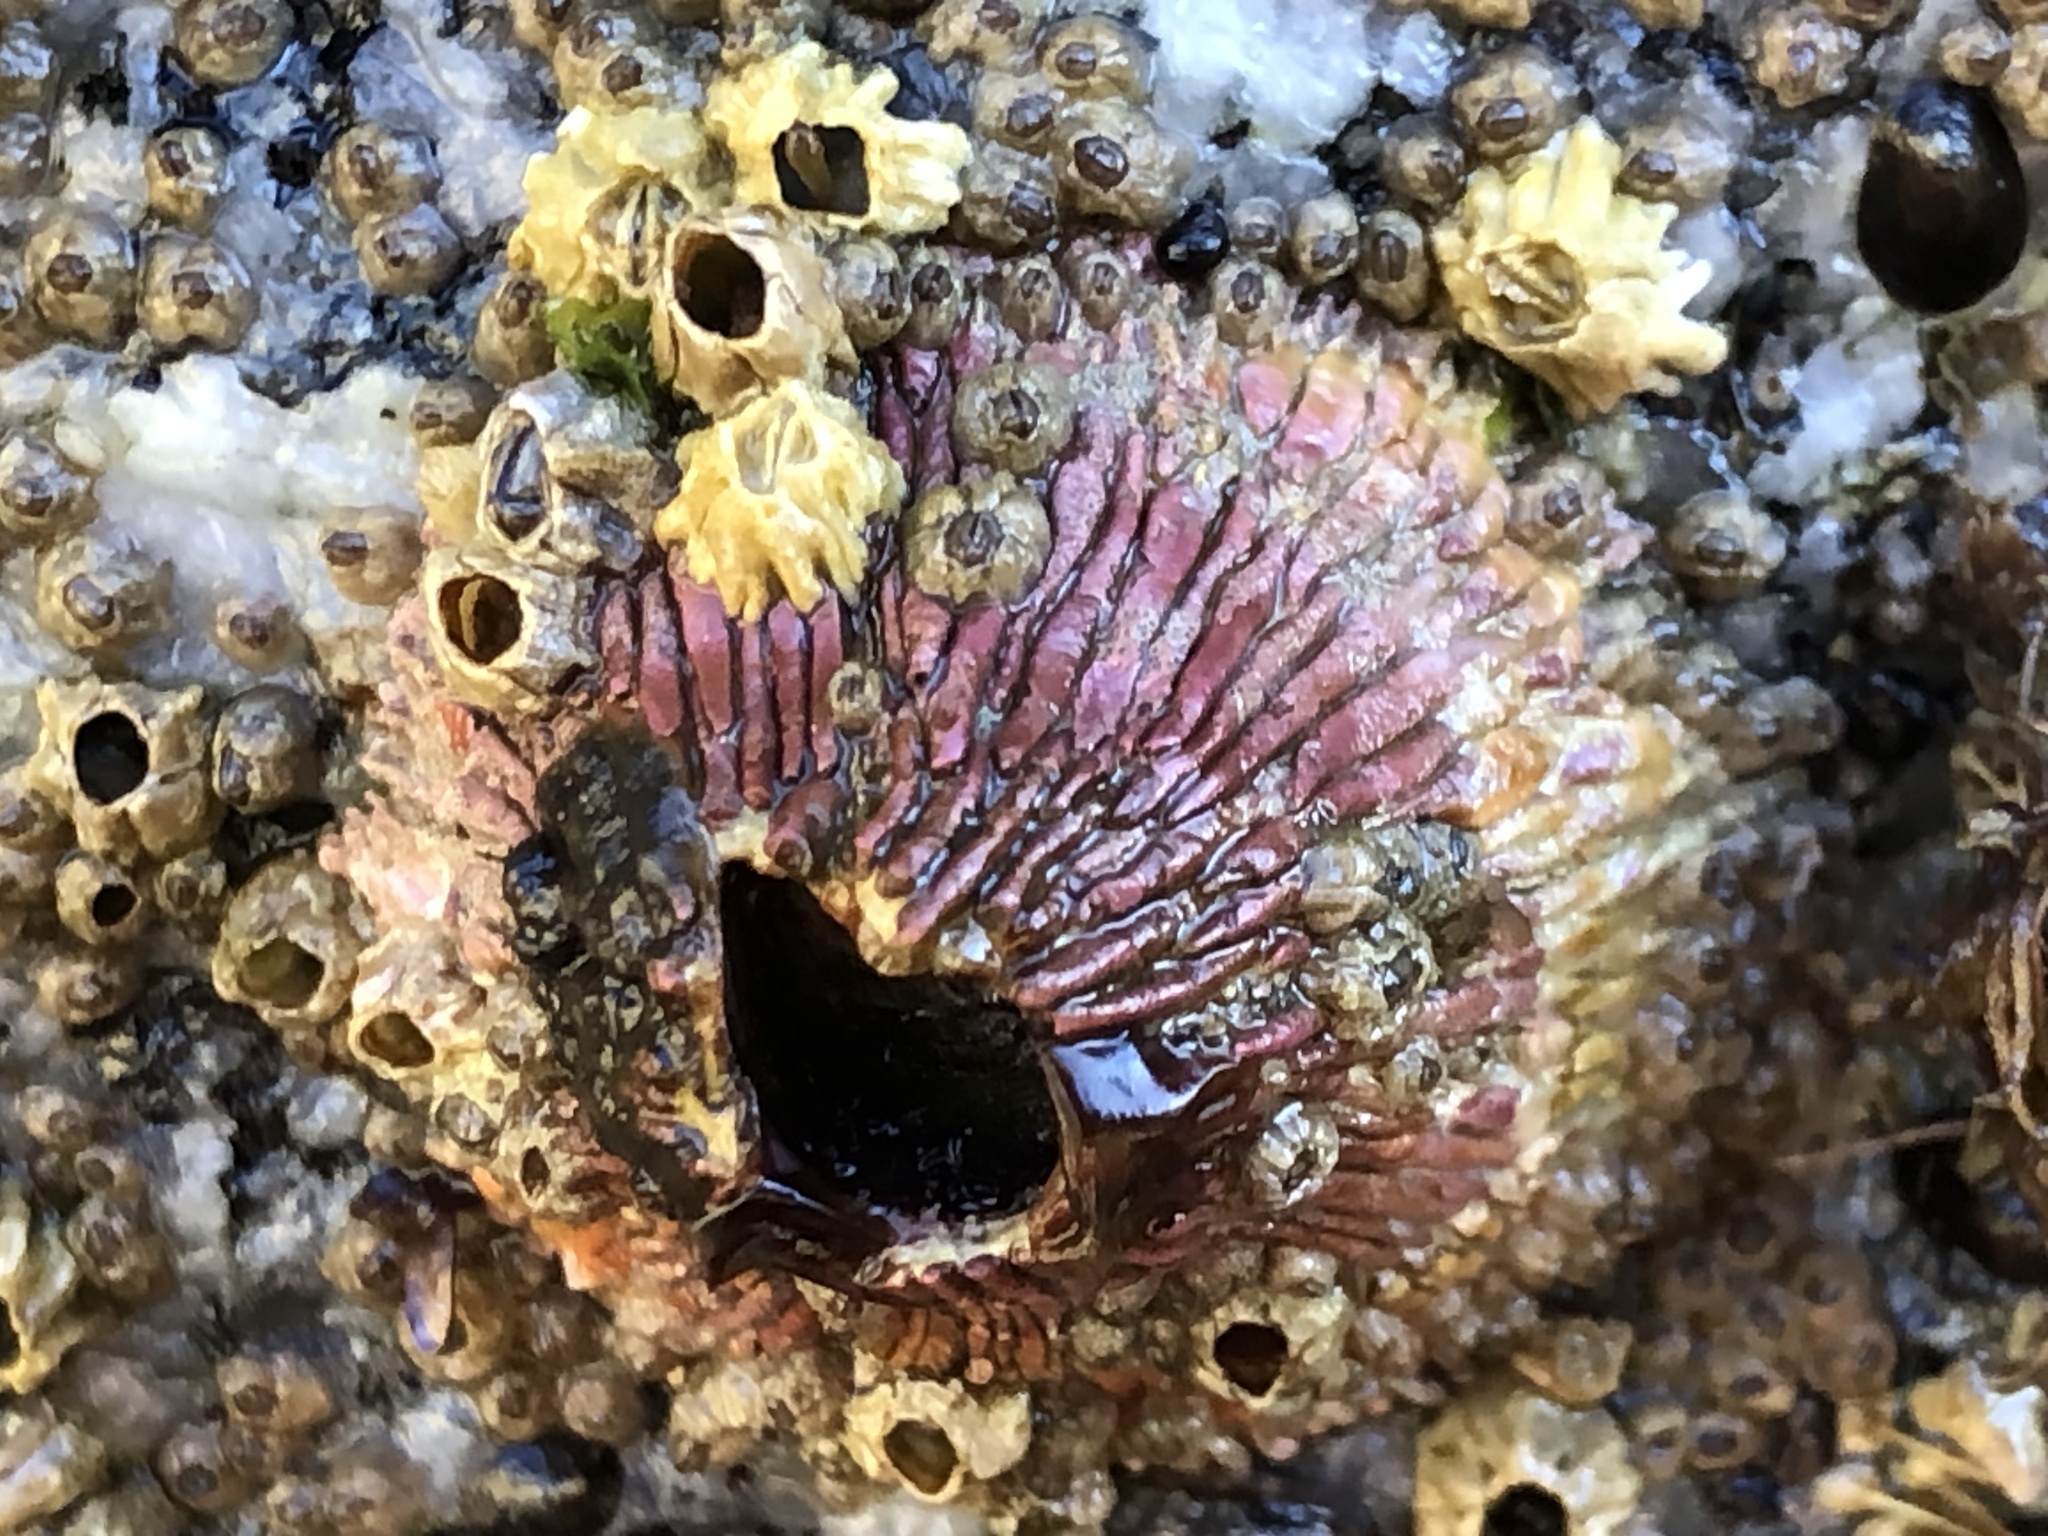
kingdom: Animalia
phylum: Arthropoda
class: Maxillopoda
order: Sessilia
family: Tetraclitidae
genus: Tetraclita
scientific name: Tetraclita rubescens
